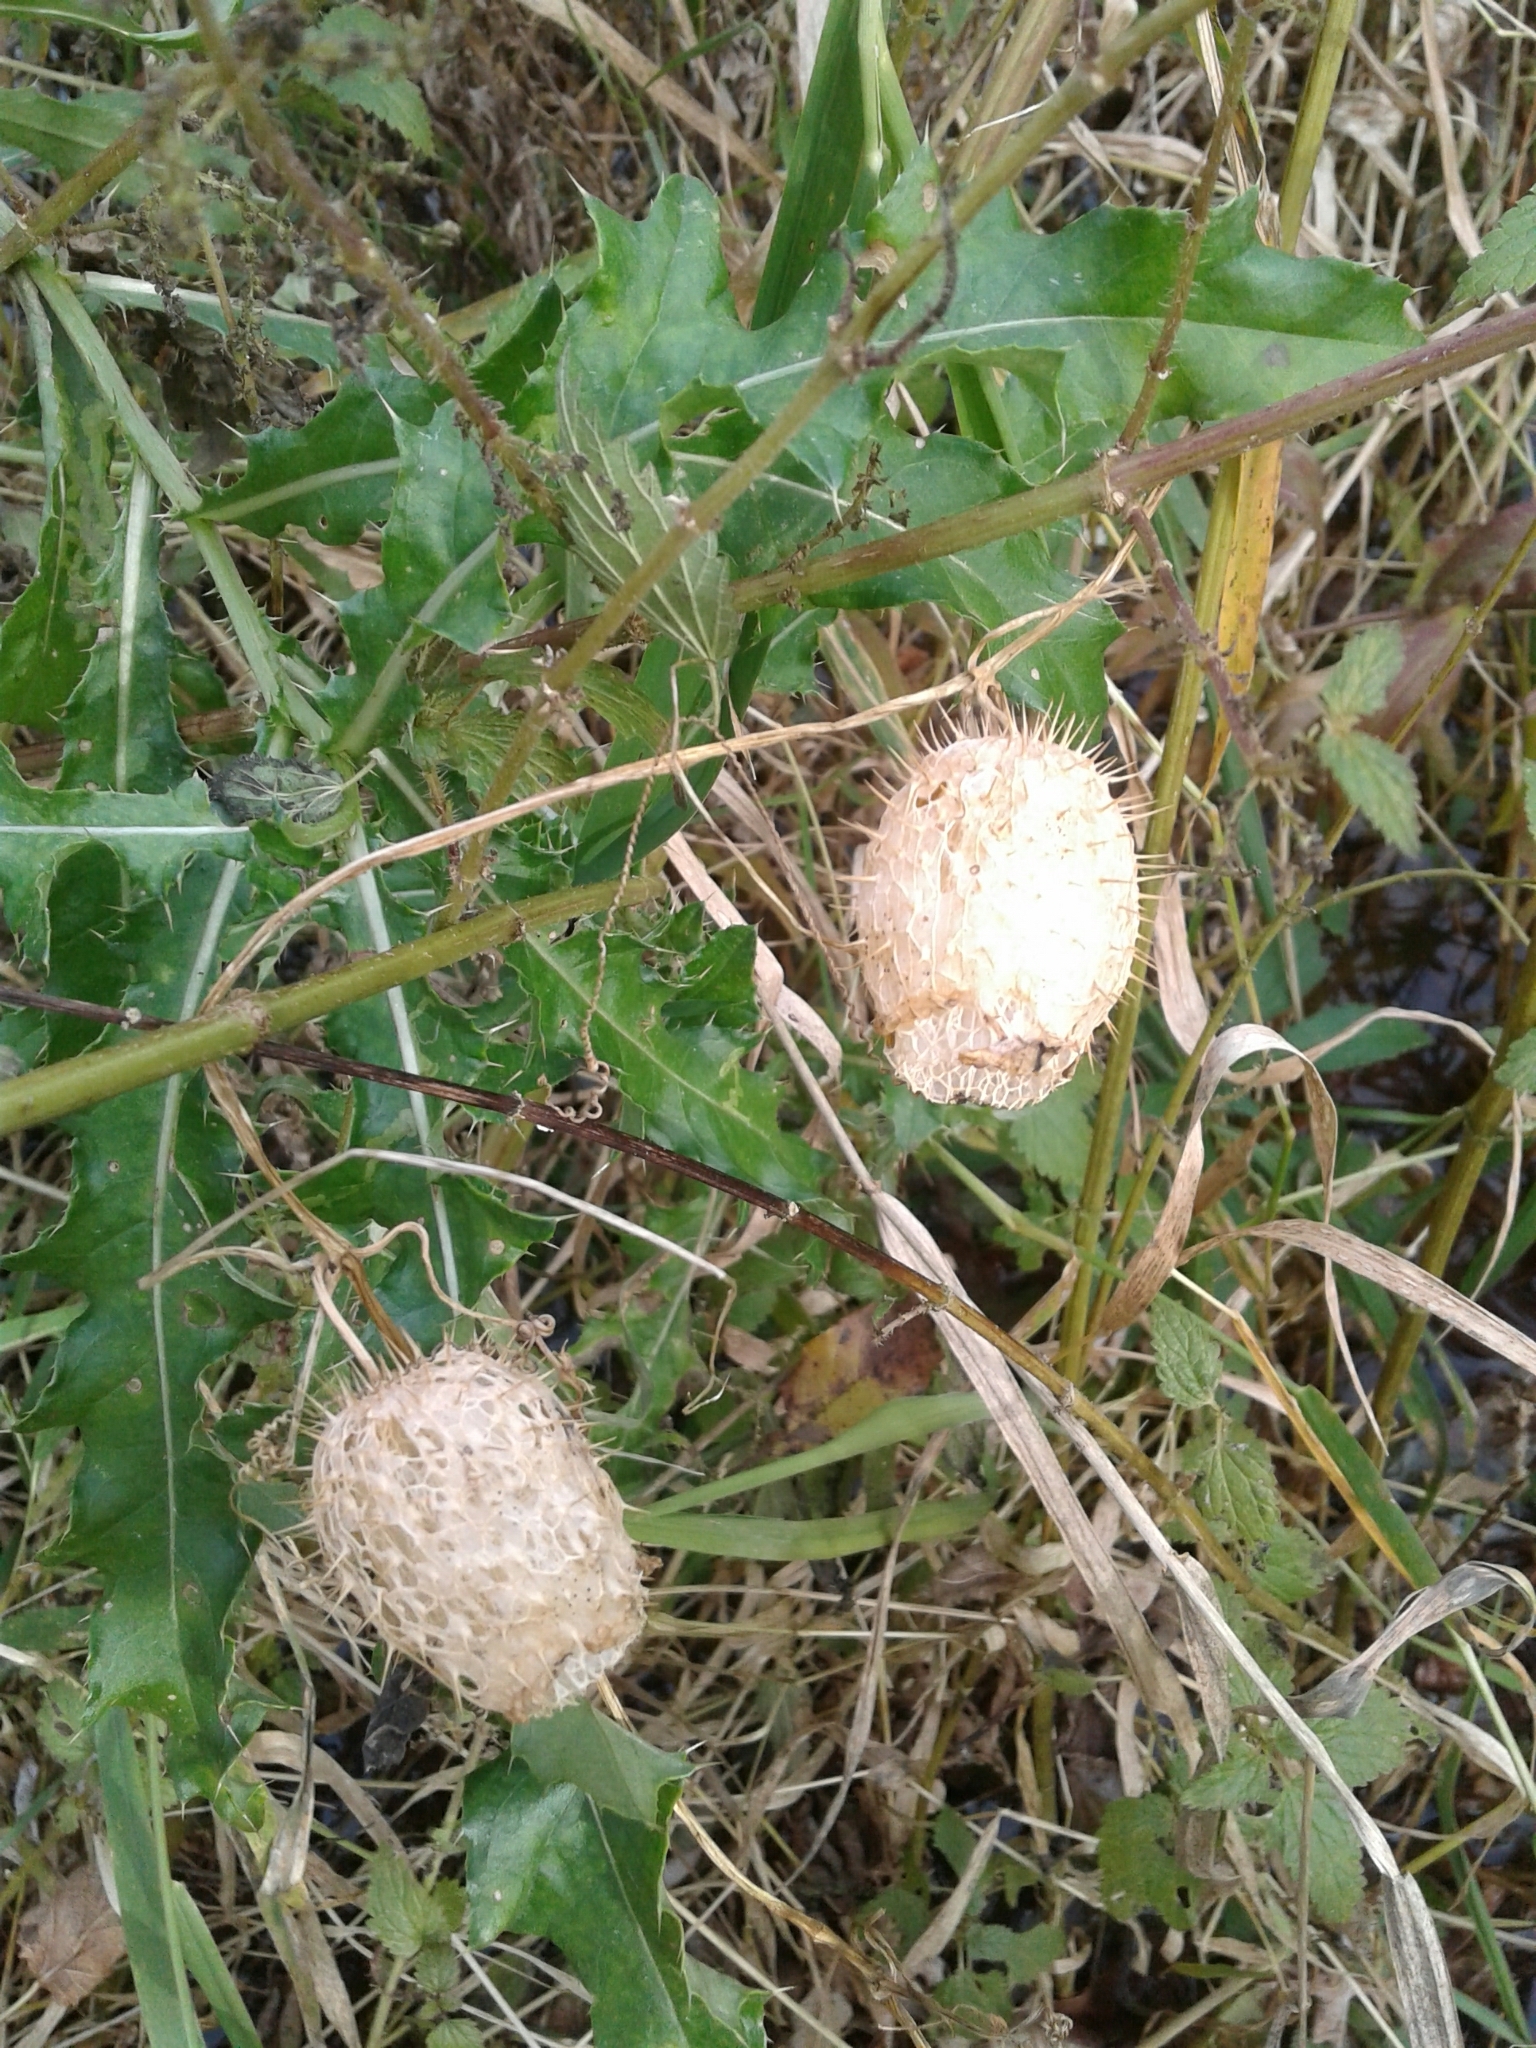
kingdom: Plantae
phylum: Tracheophyta
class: Magnoliopsida
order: Cucurbitales
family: Cucurbitaceae
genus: Echinocystis
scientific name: Echinocystis lobata
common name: Wild cucumber
